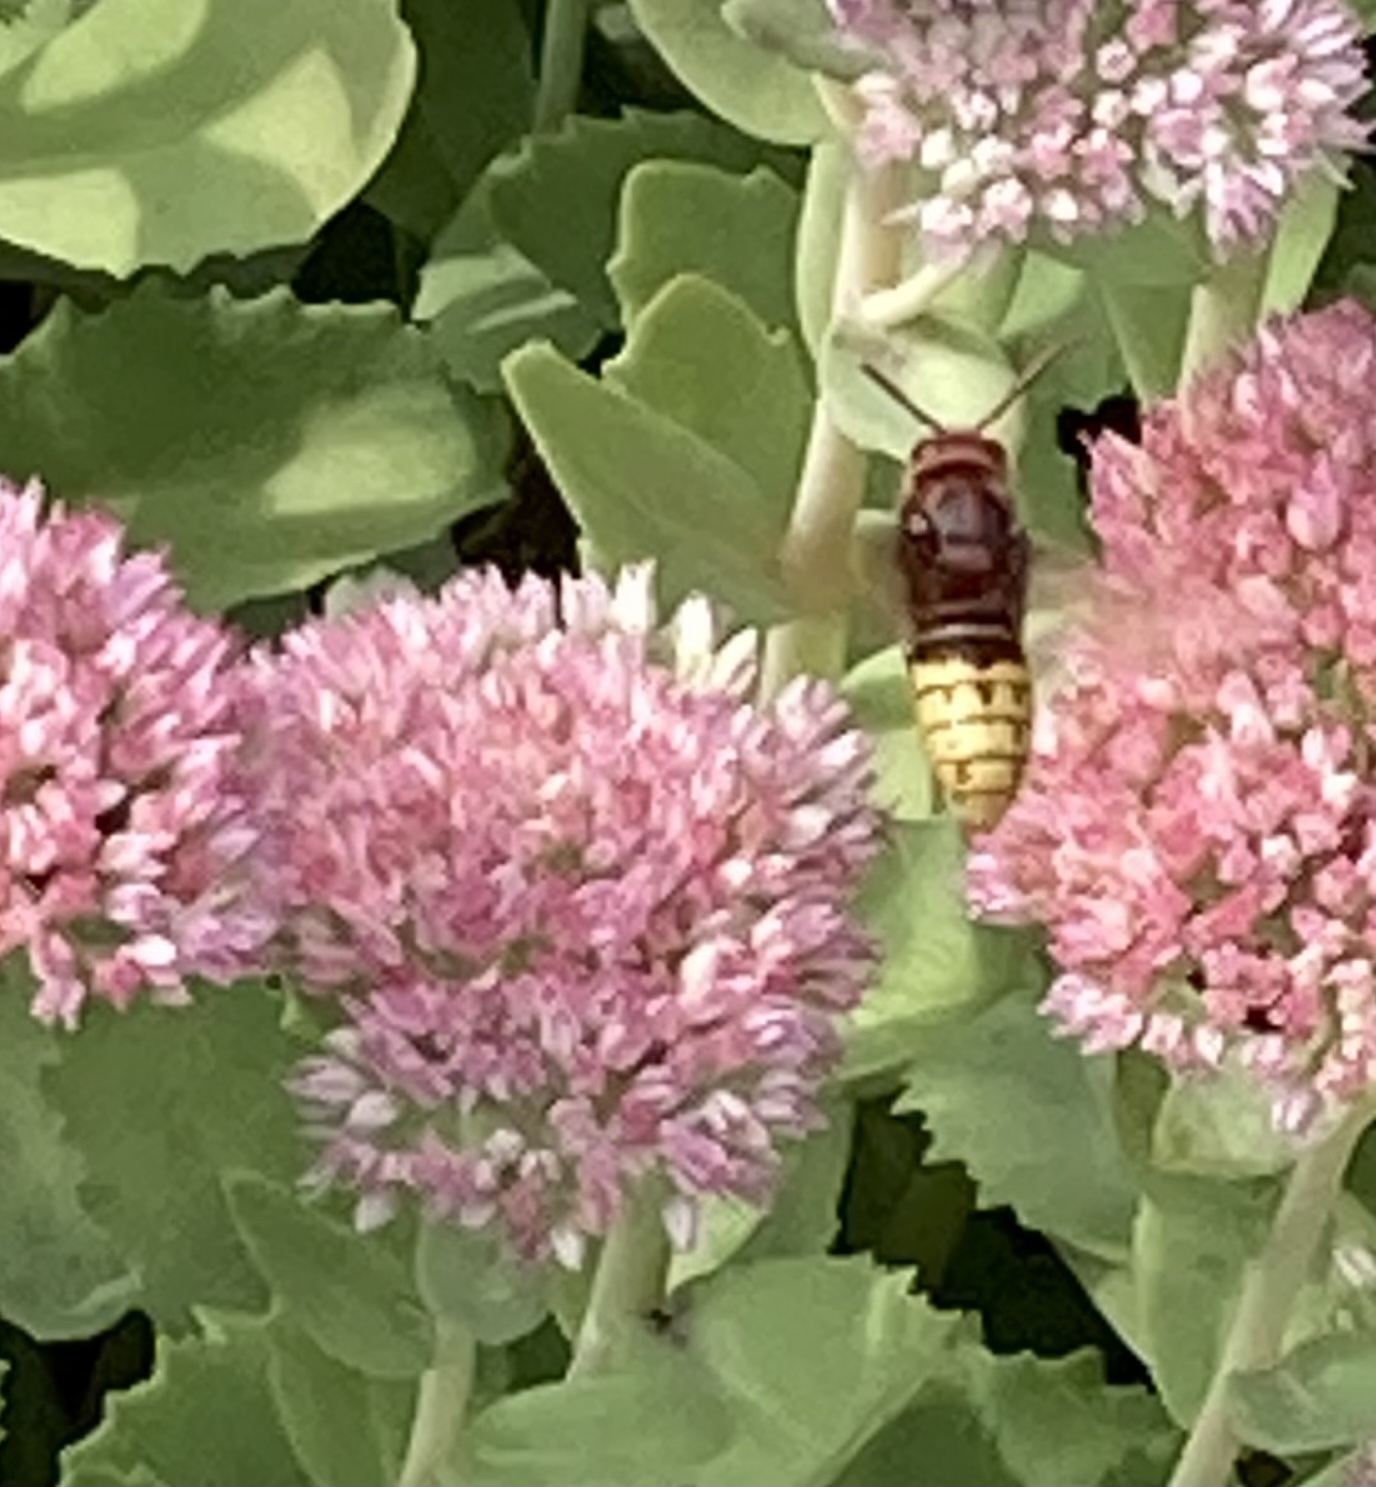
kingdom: Animalia
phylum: Arthropoda
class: Insecta
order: Hymenoptera
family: Vespidae
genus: Vespa
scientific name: Vespa crabro
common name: Hornet
